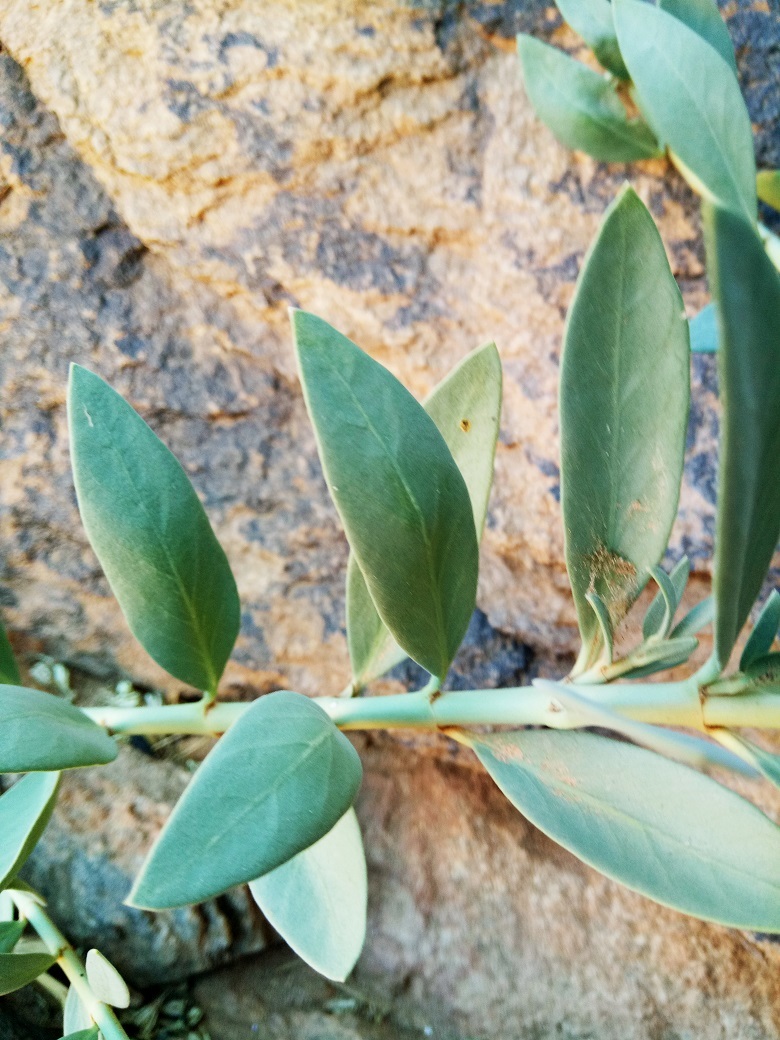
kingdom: Plantae
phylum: Tracheophyta
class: Magnoliopsida
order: Gentianales
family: Apocynaceae
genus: Solenostemma
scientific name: Solenostemma oleifolium
